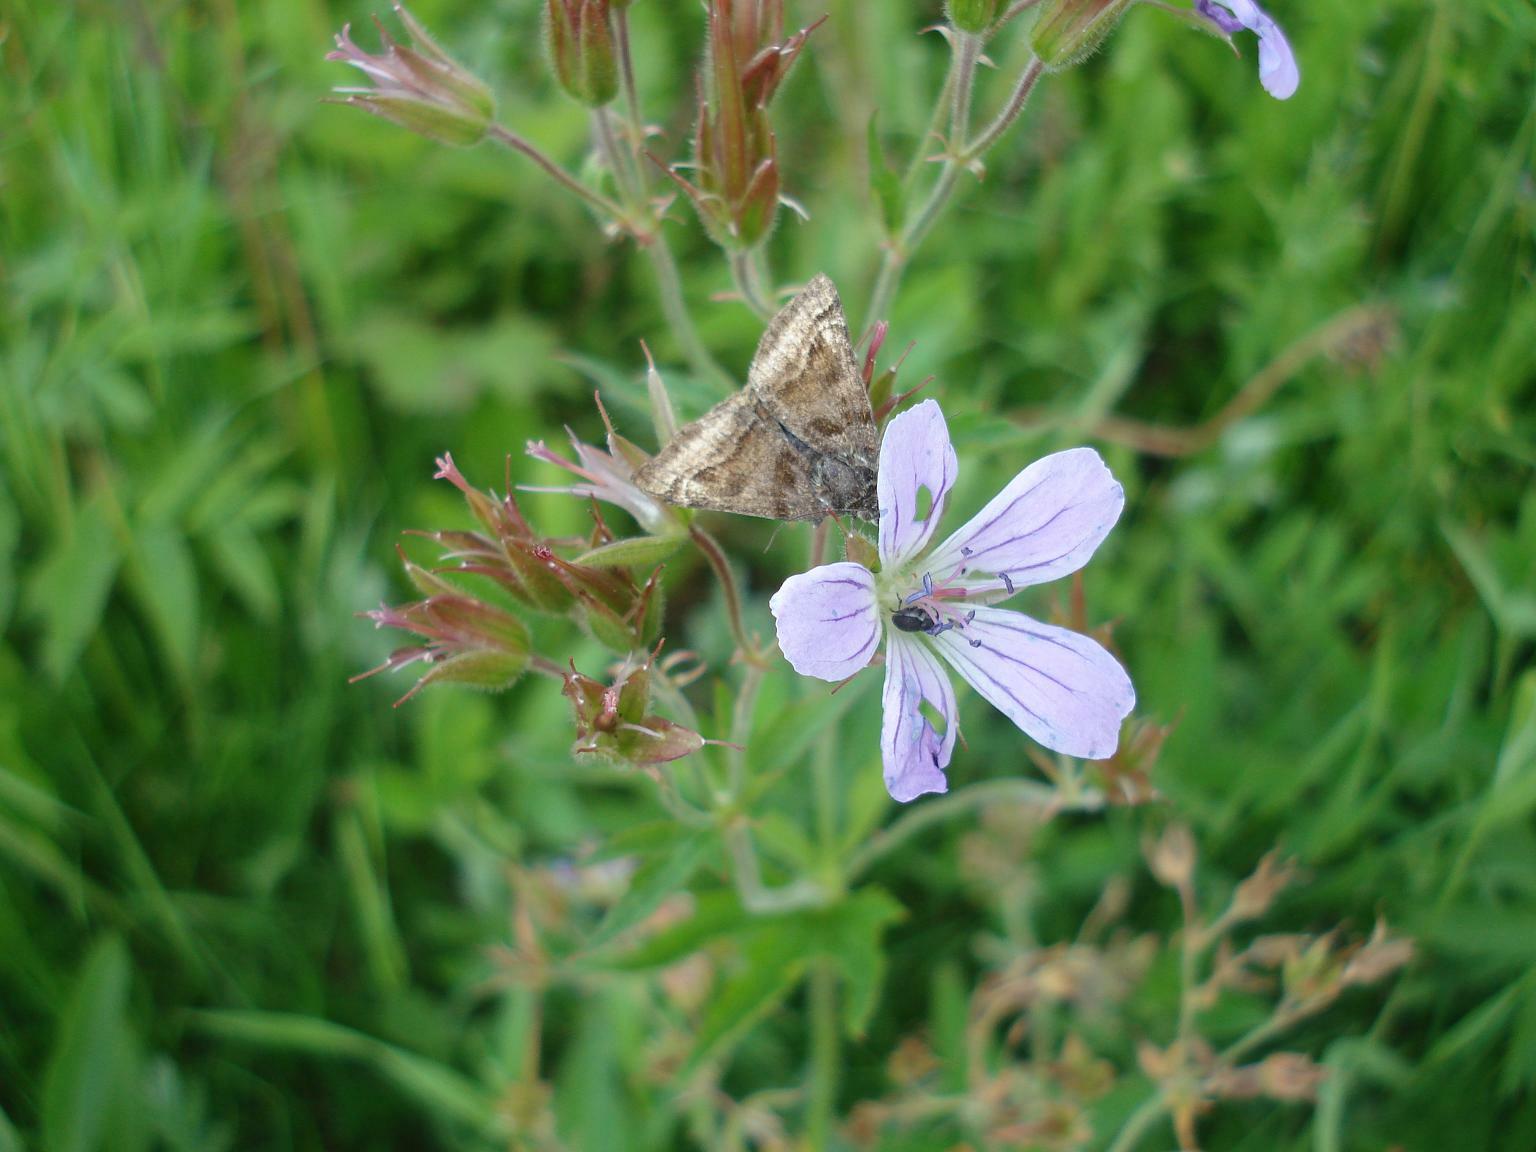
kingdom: Animalia
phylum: Arthropoda
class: Insecta
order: Lepidoptera
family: Erebidae
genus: Euclidia
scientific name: Euclidia glyphica
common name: Burnet companion
